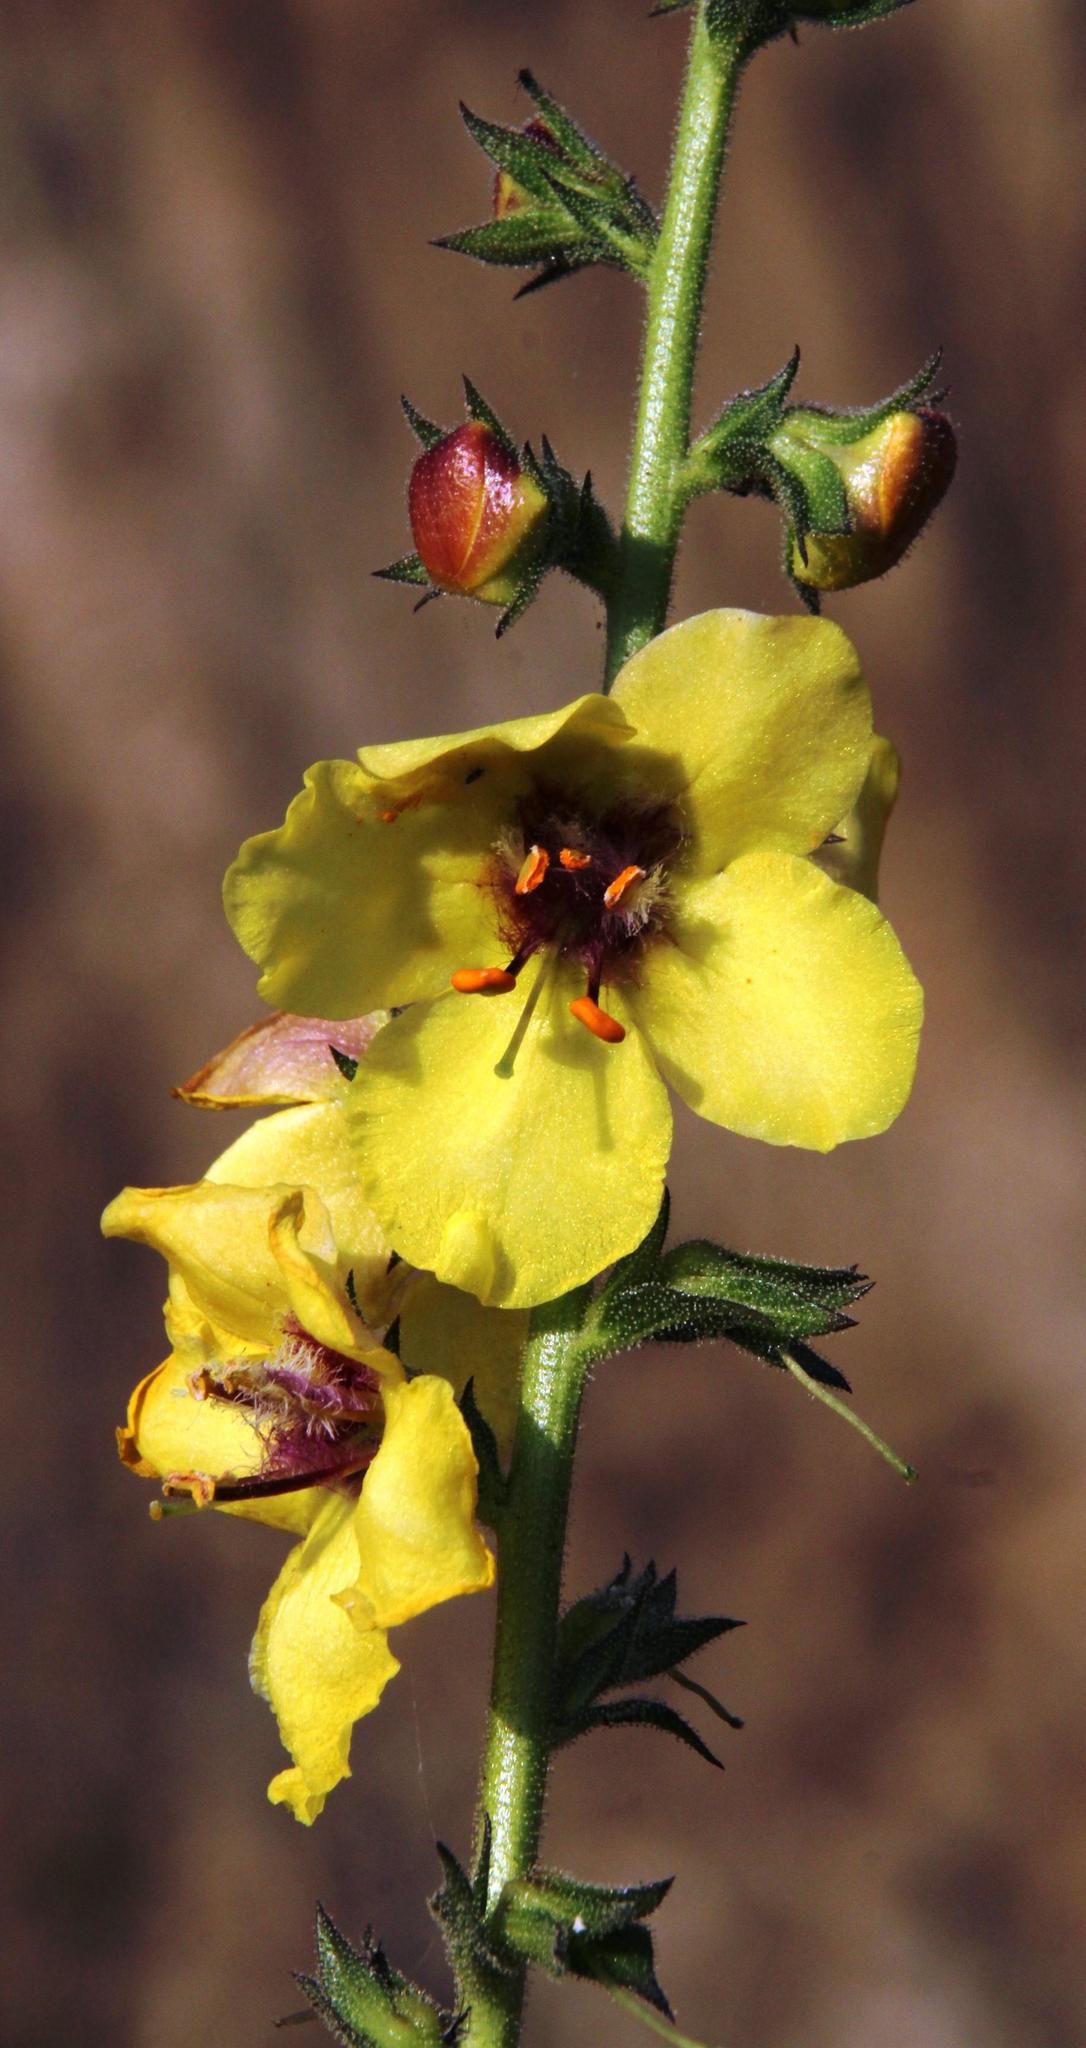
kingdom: Plantae
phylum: Tracheophyta
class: Magnoliopsida
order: Lamiales
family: Scrophulariaceae
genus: Verbascum
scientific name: Verbascum virgatum
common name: Twiggy mullein
